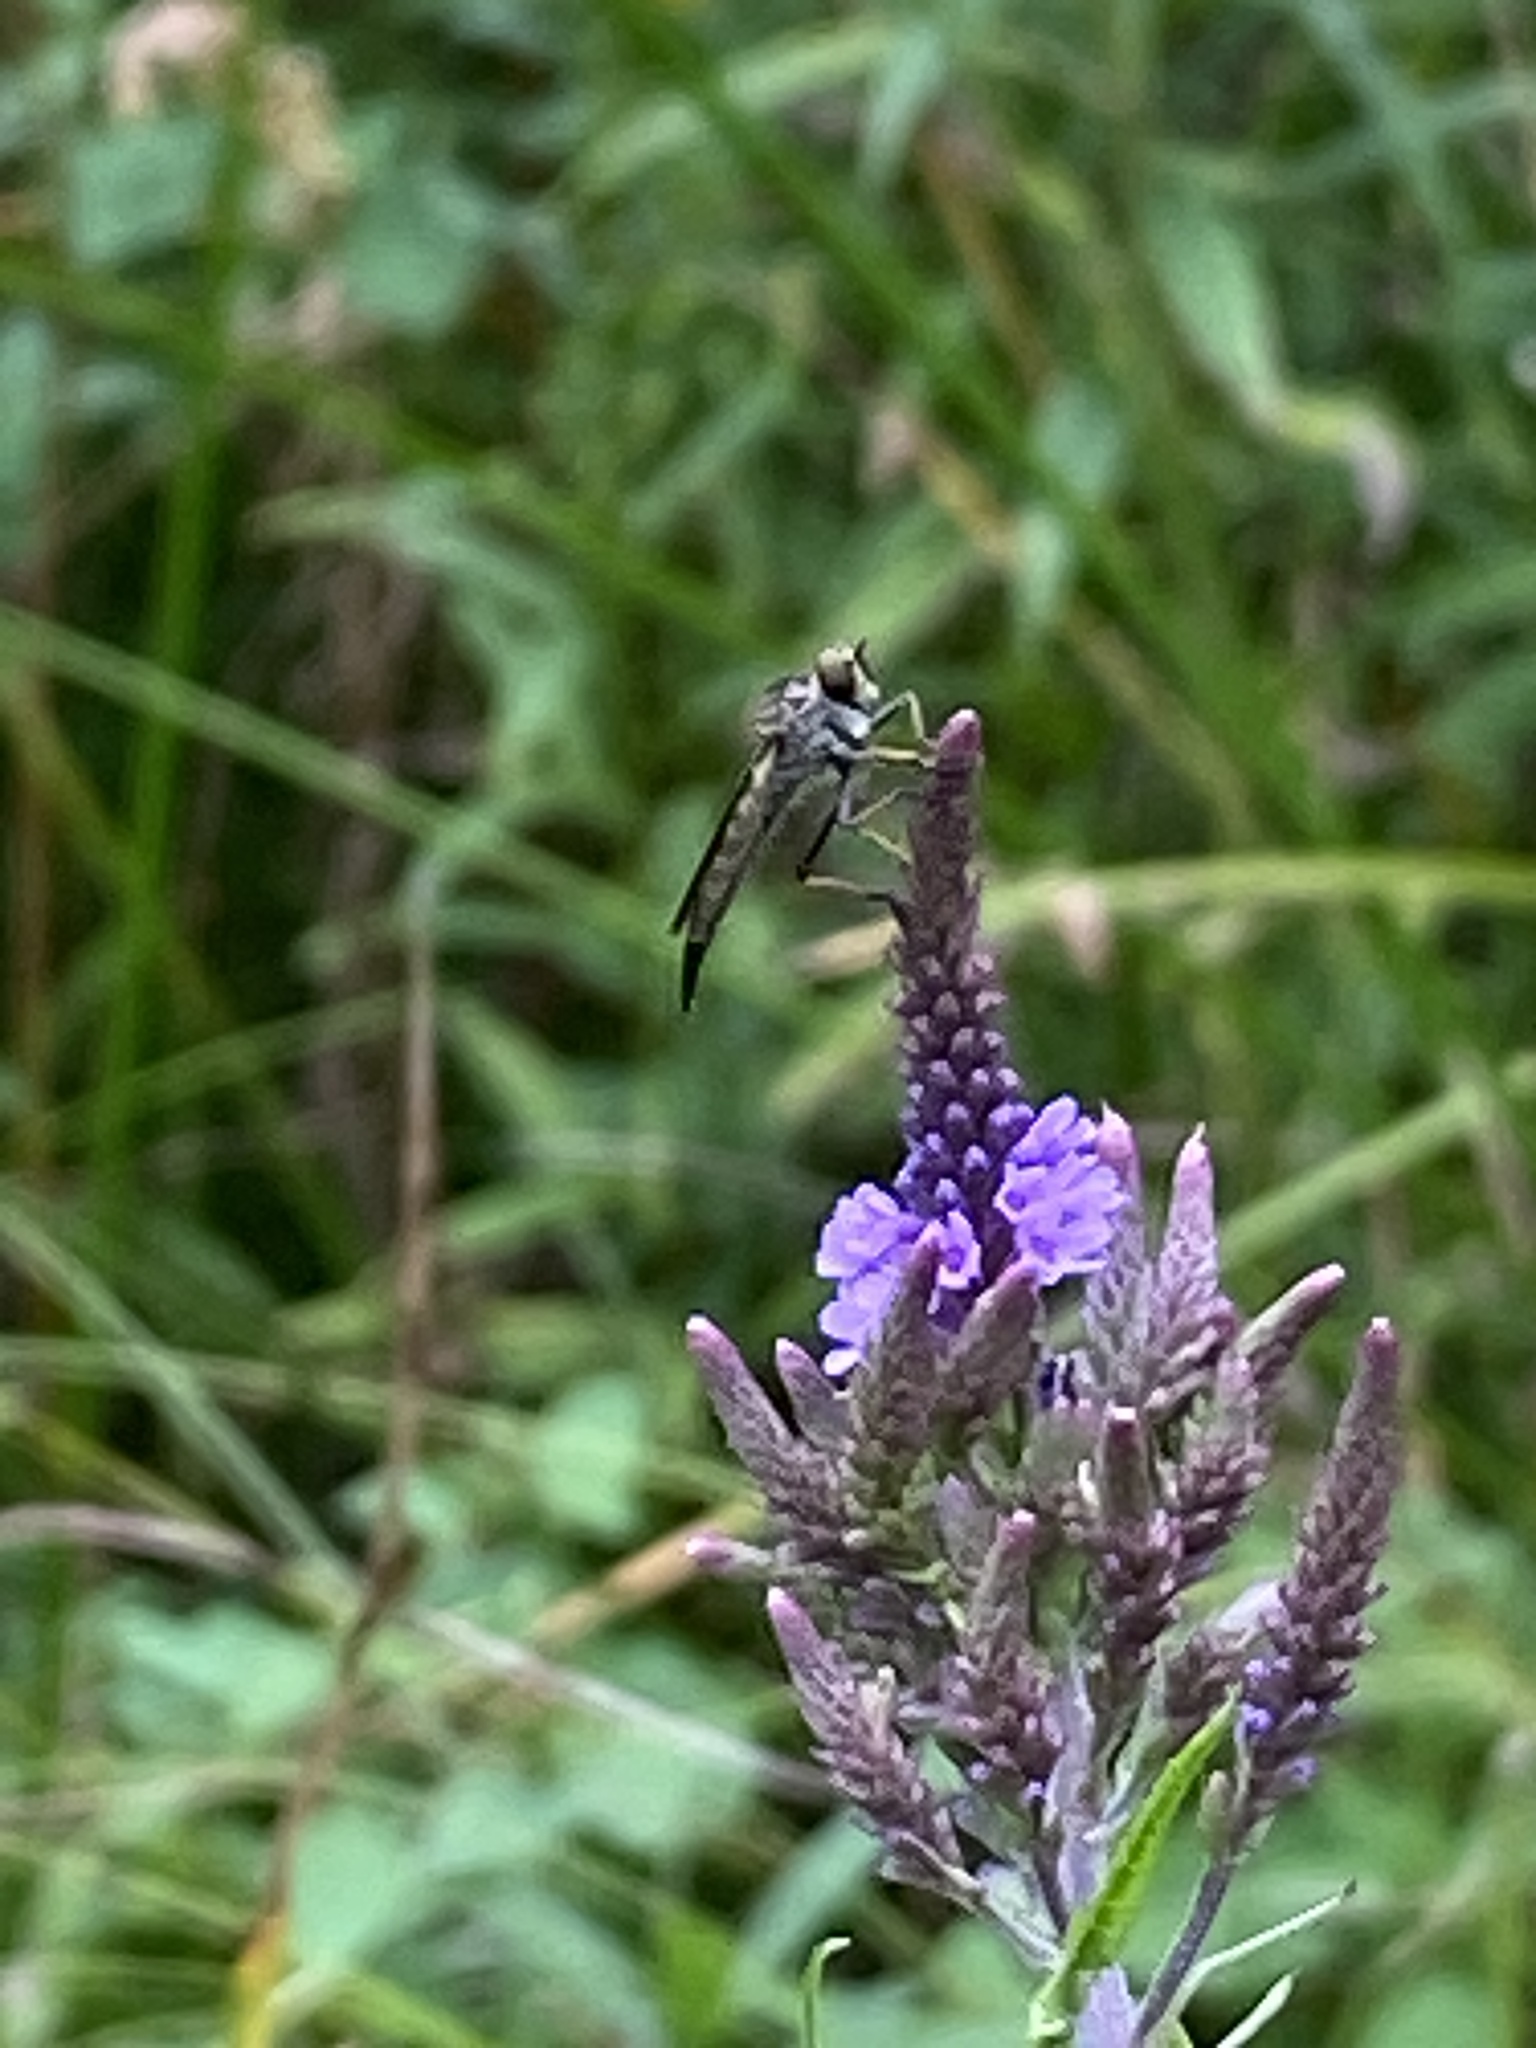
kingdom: Plantae
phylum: Tracheophyta
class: Magnoliopsida
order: Lamiales
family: Verbenaceae
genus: Verbena
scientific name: Verbena hastata
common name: American blue vervain
